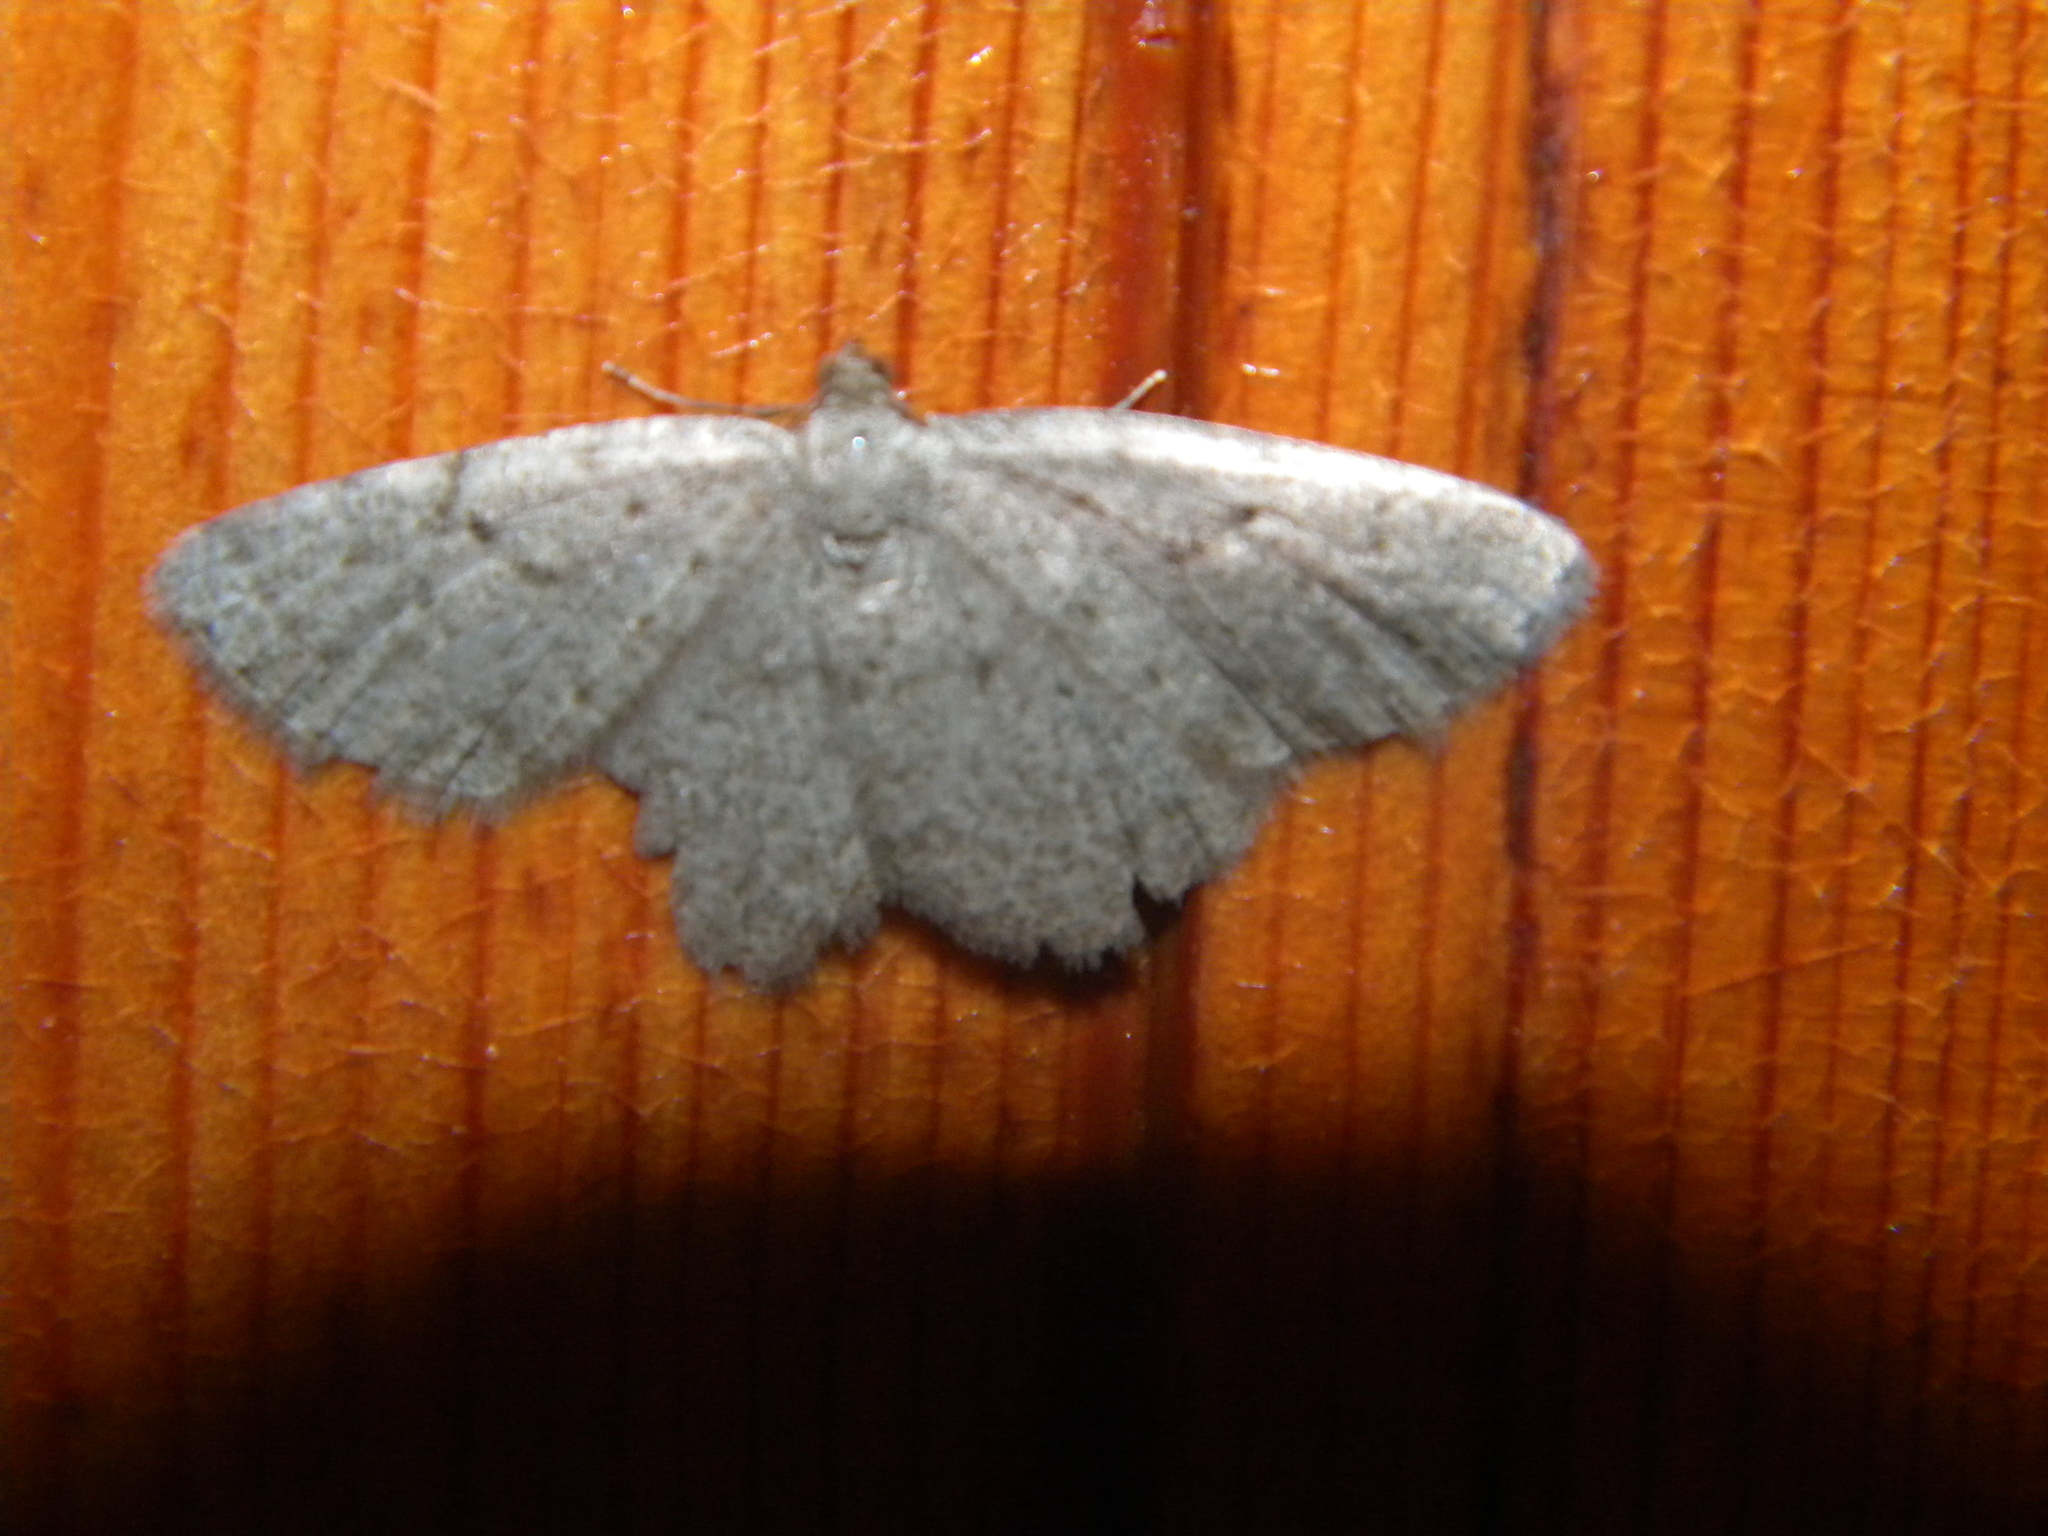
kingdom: Animalia
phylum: Arthropoda
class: Insecta
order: Lepidoptera
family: Geometridae
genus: Gnophos
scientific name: Gnophos sartata
